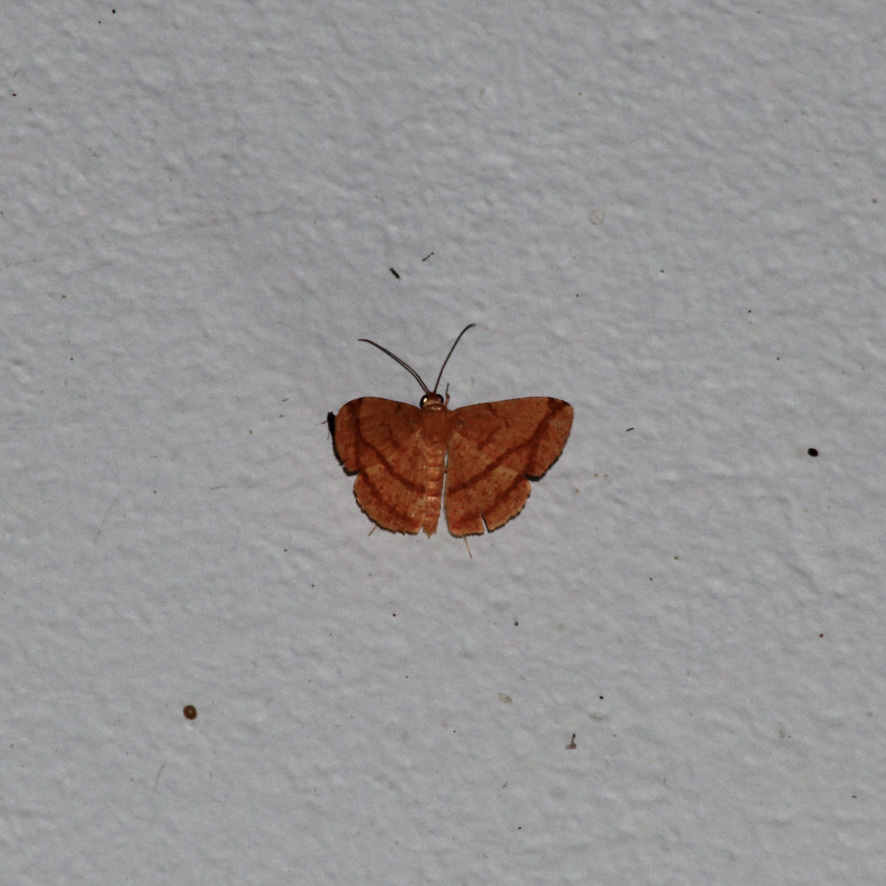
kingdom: Animalia
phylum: Arthropoda
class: Insecta
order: Lepidoptera
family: Geometridae
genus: Pyrinia
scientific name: Pyrinia rutilaria
